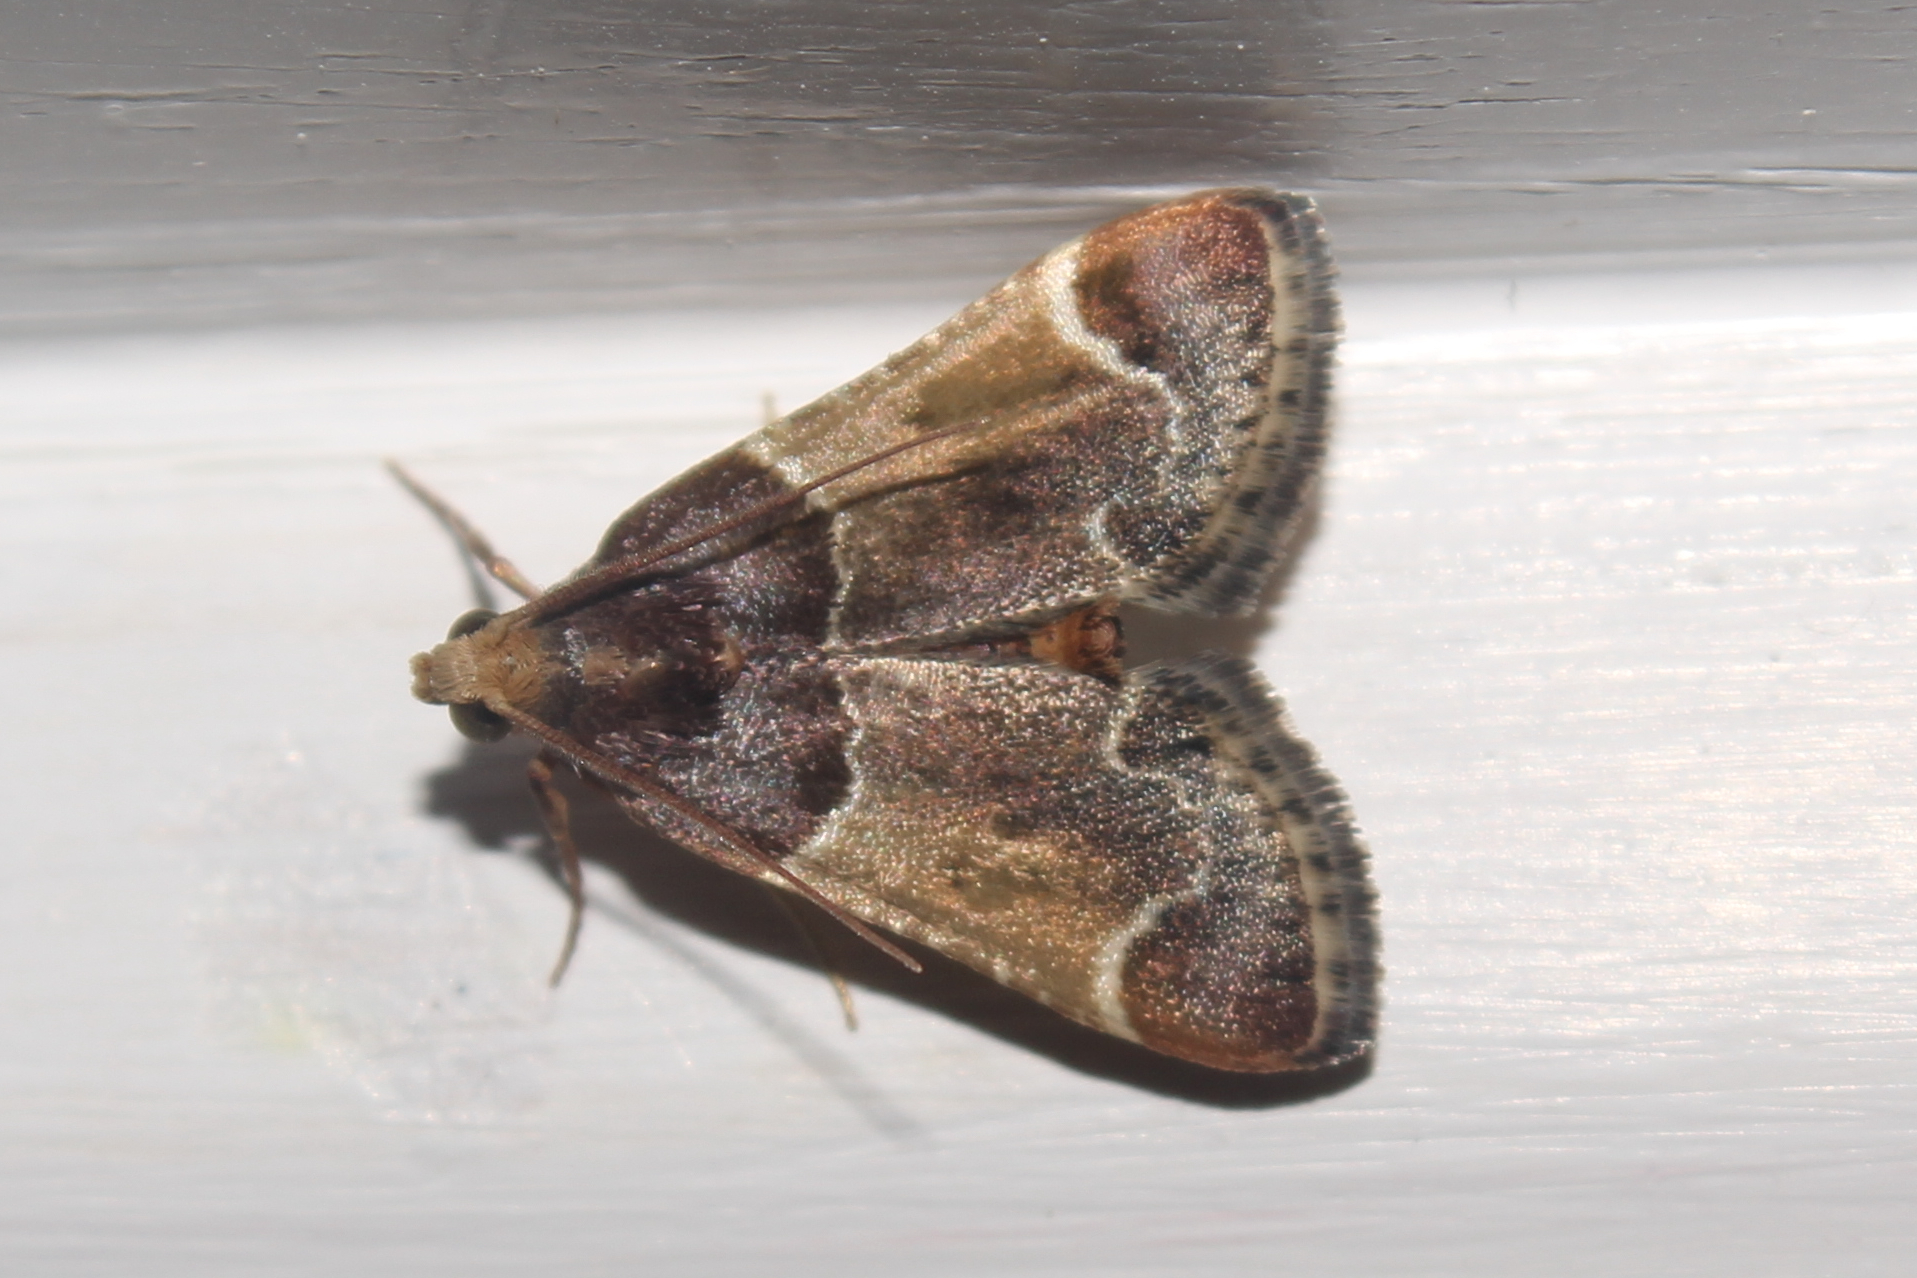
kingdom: Animalia
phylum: Arthropoda
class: Insecta
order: Lepidoptera
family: Pyralidae
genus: Pyralis
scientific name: Pyralis farinalis
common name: Meal moth
